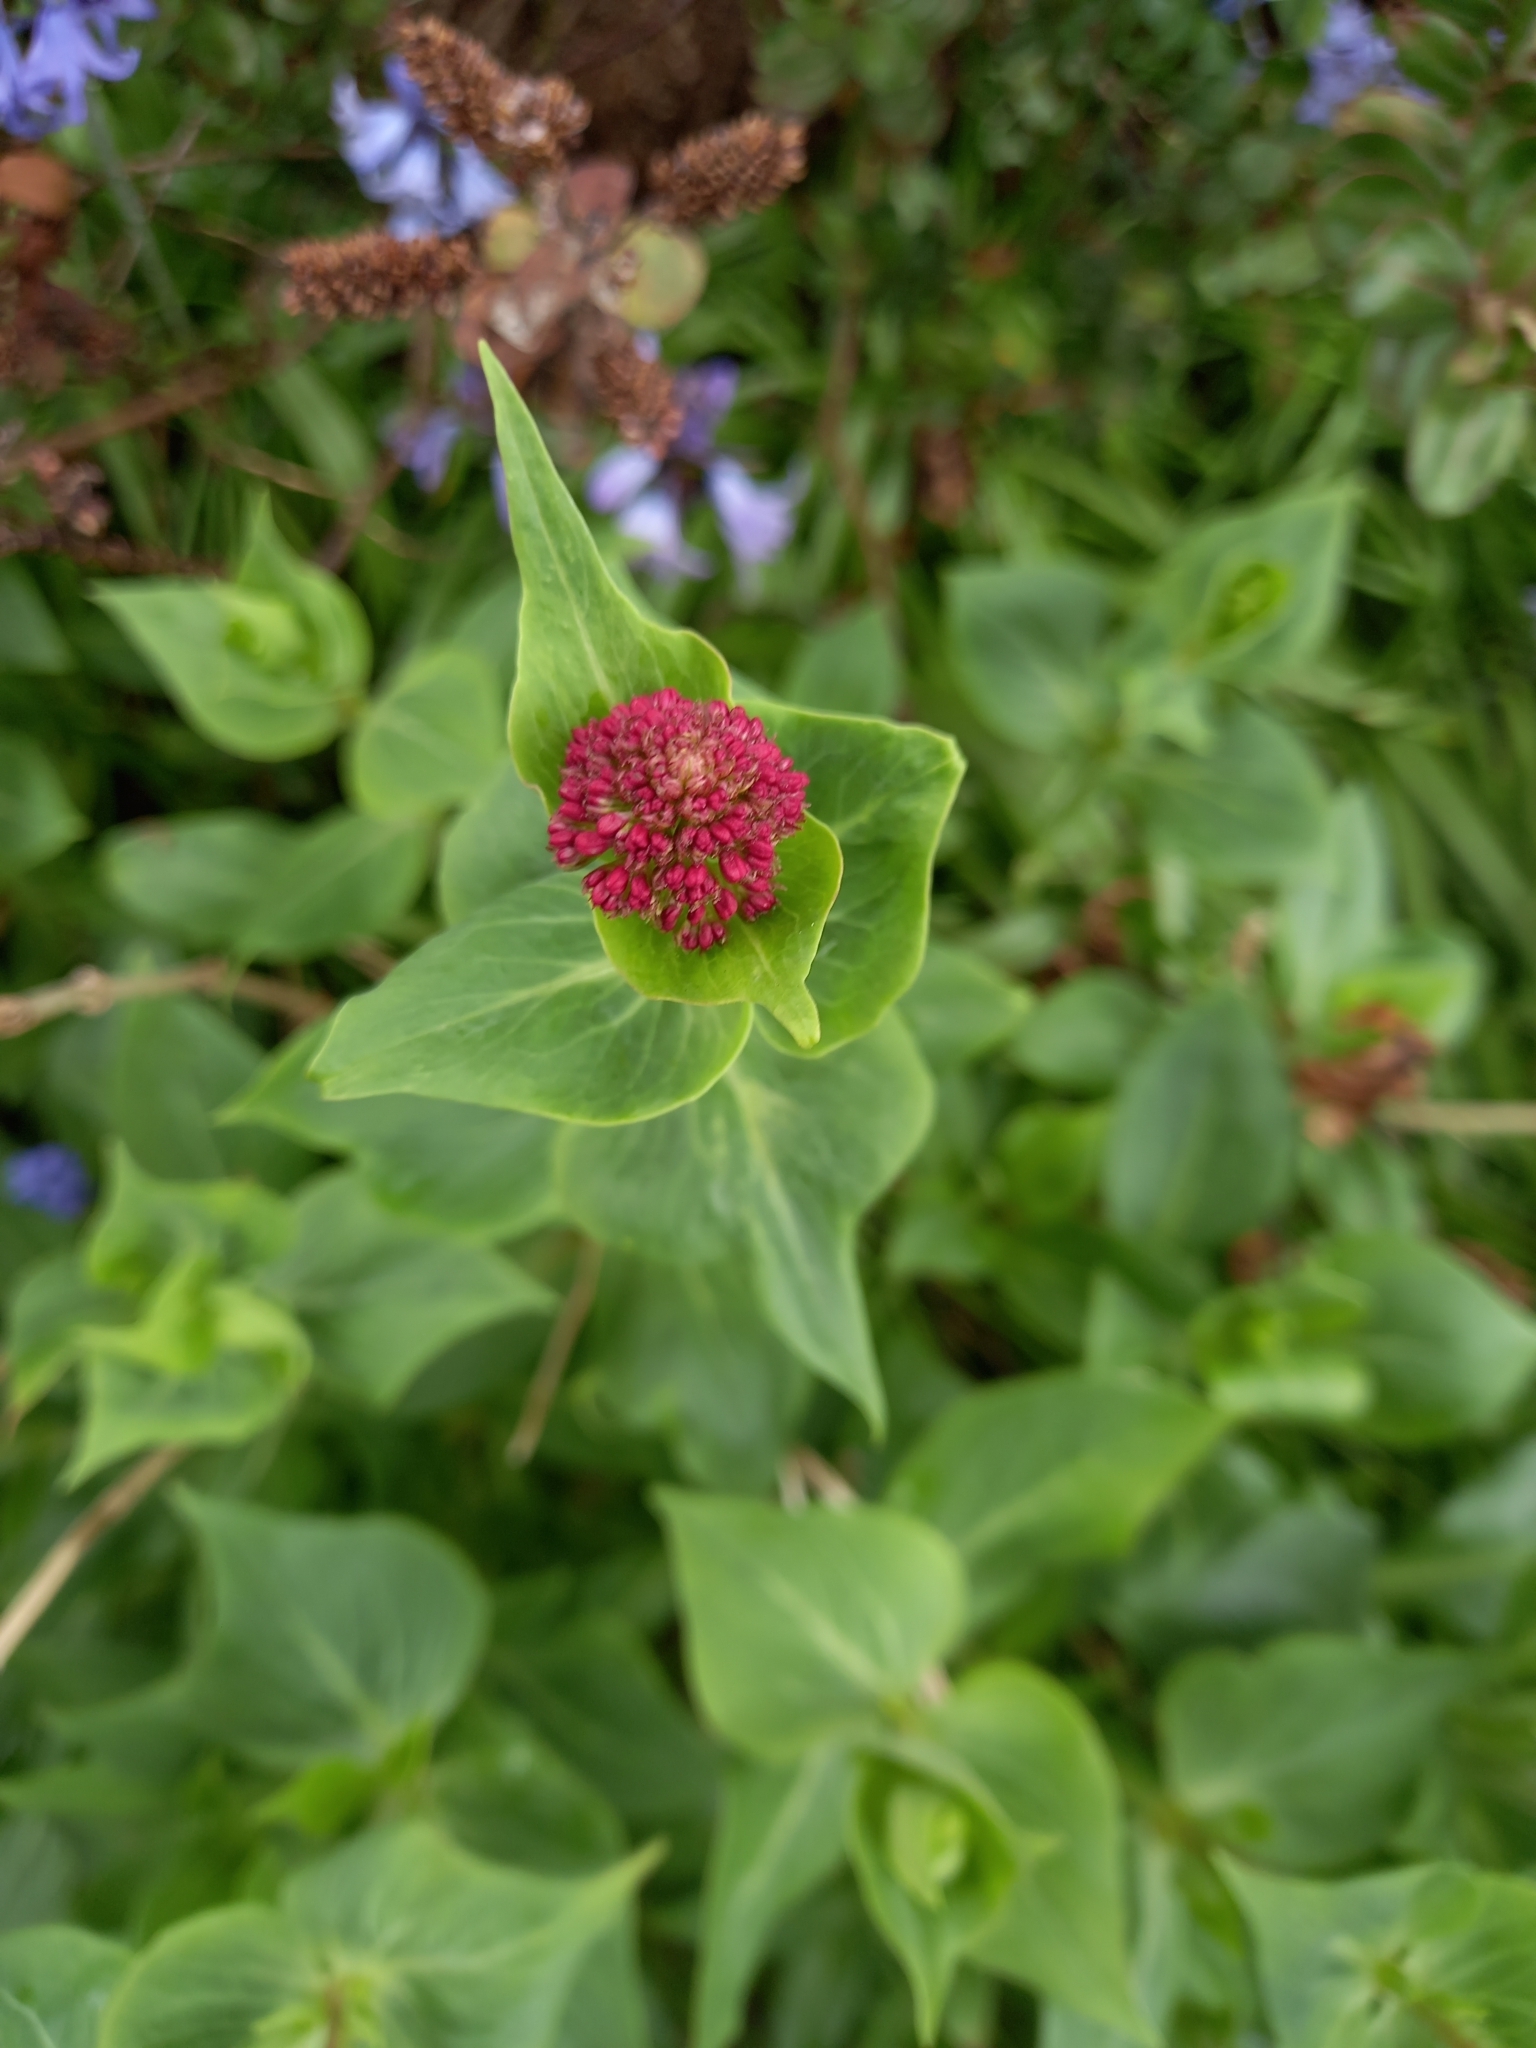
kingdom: Plantae
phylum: Tracheophyta
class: Magnoliopsida
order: Dipsacales
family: Caprifoliaceae
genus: Centranthus
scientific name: Centranthus ruber
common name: Red valerian
